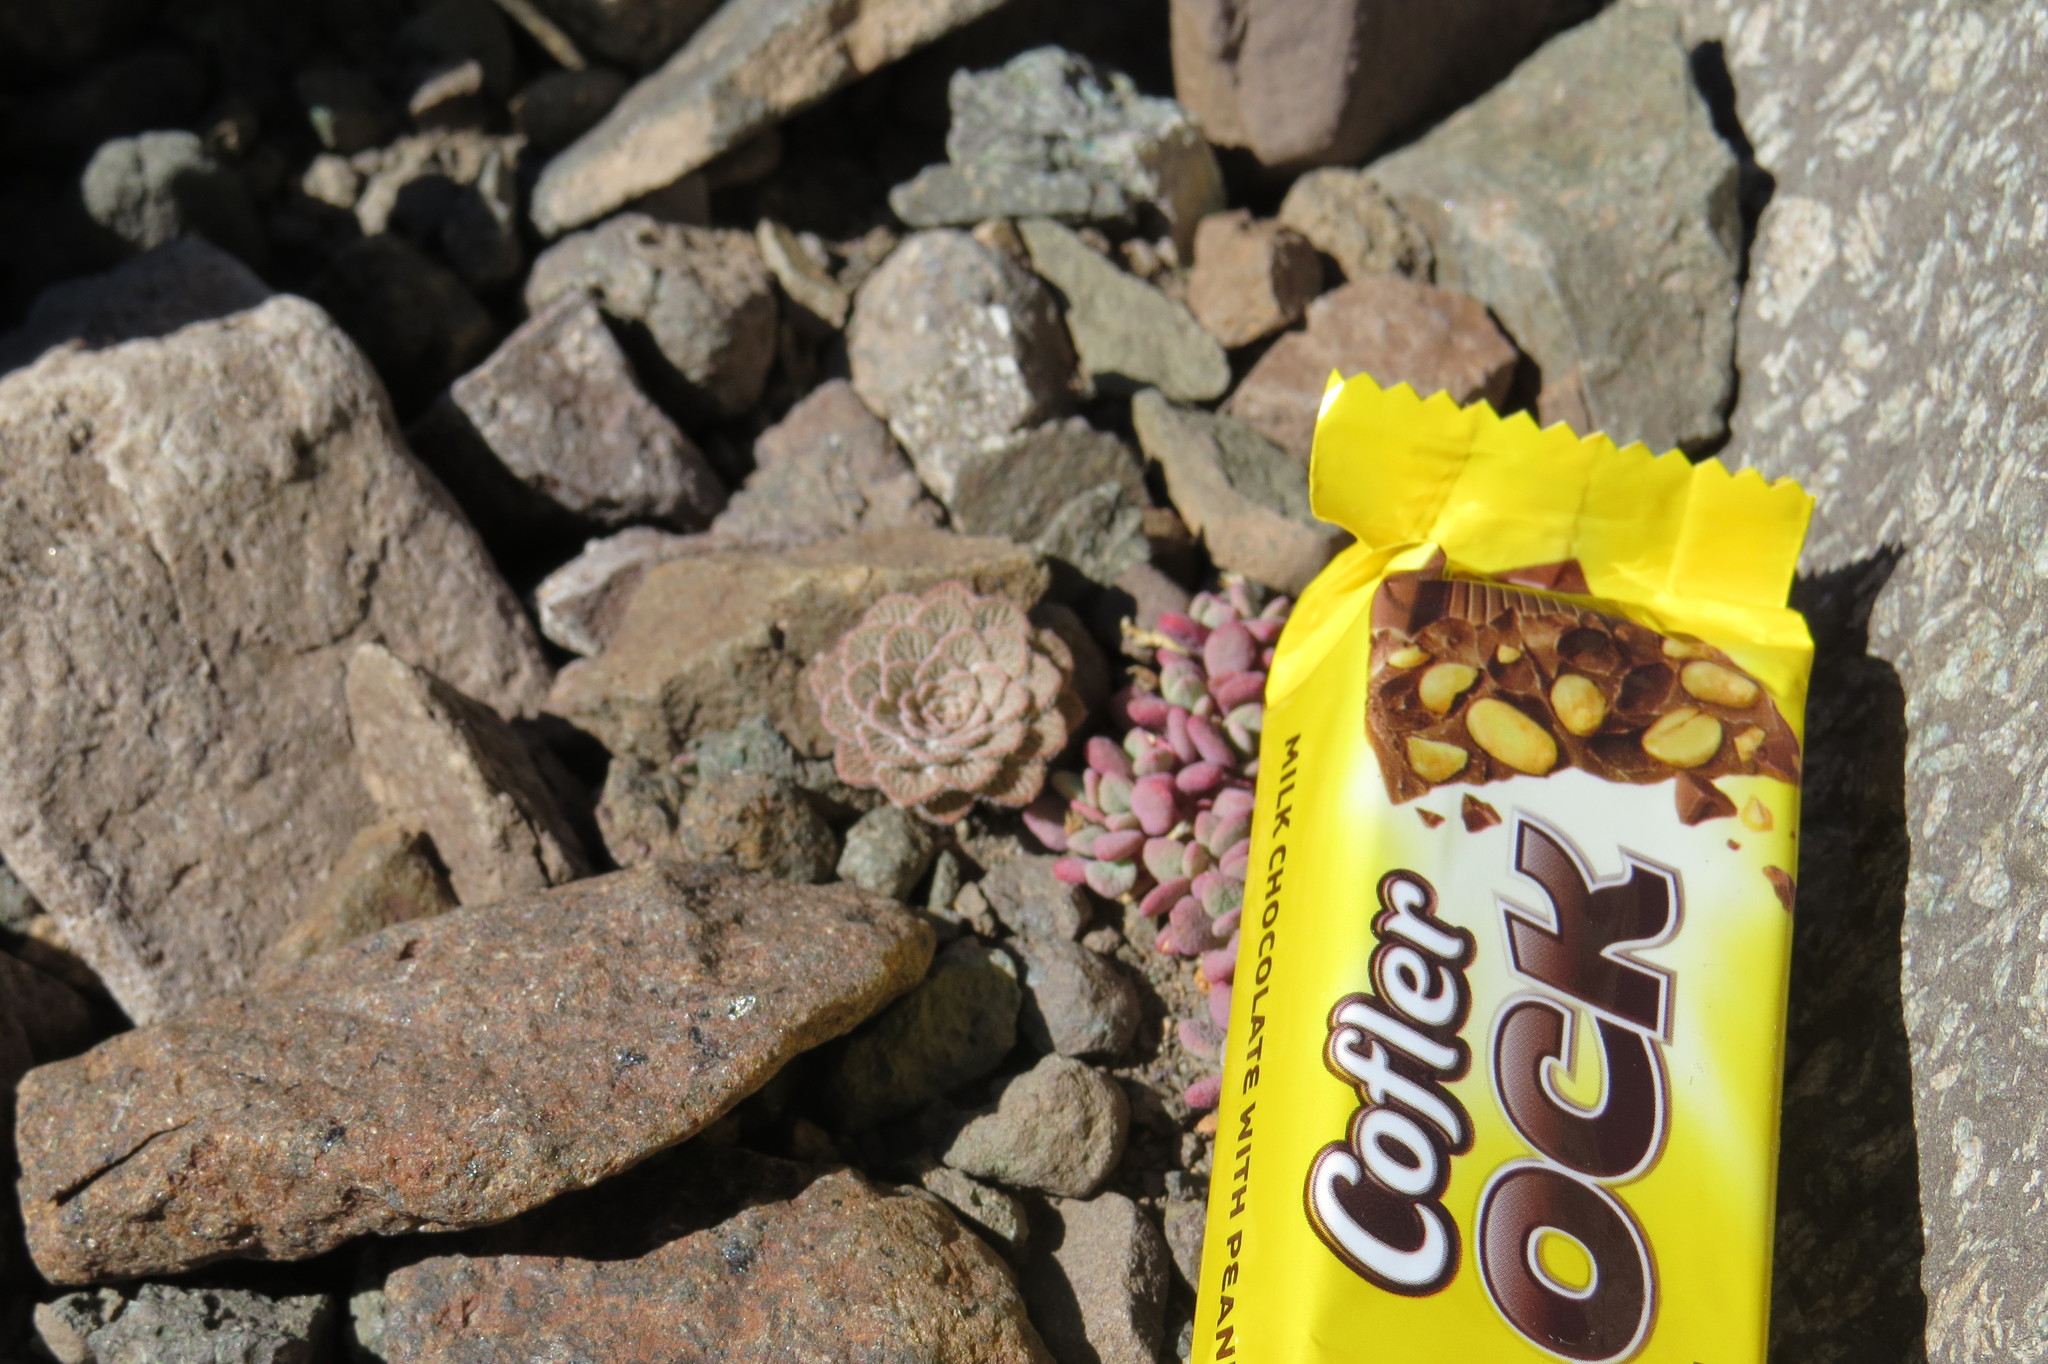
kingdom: Plantae
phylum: Tracheophyta
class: Magnoliopsida
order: Malpighiales
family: Violaceae
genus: Viola
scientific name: Viola montagnei
